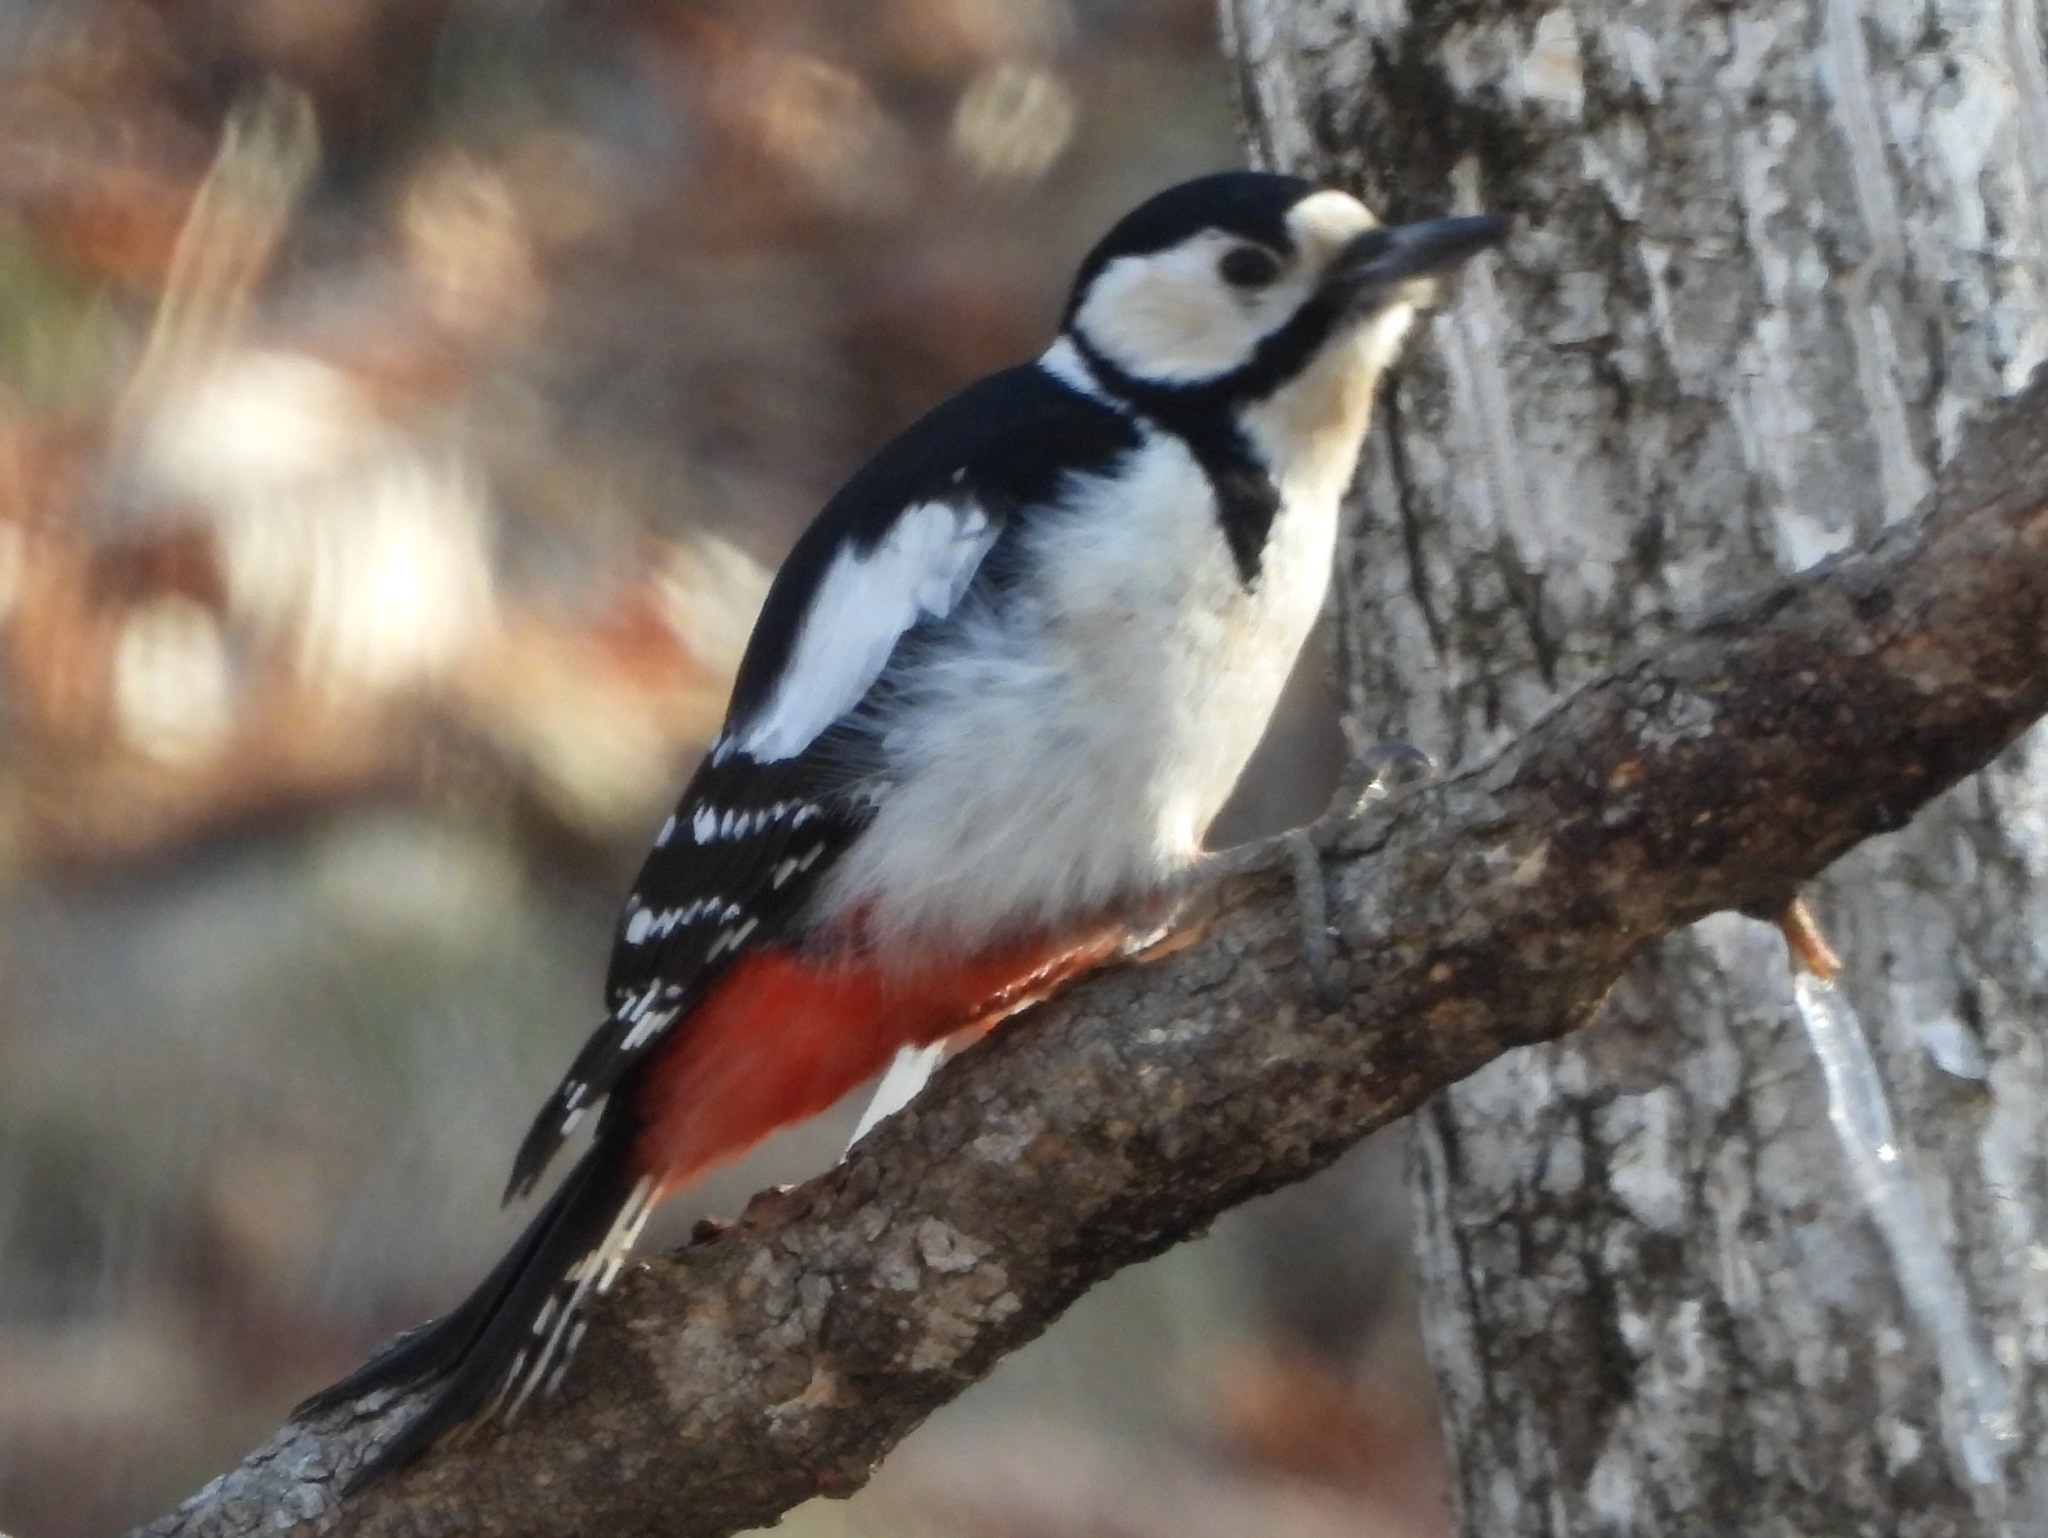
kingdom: Animalia
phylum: Chordata
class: Aves
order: Piciformes
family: Picidae
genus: Dendrocopos
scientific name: Dendrocopos major
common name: Great spotted woodpecker
